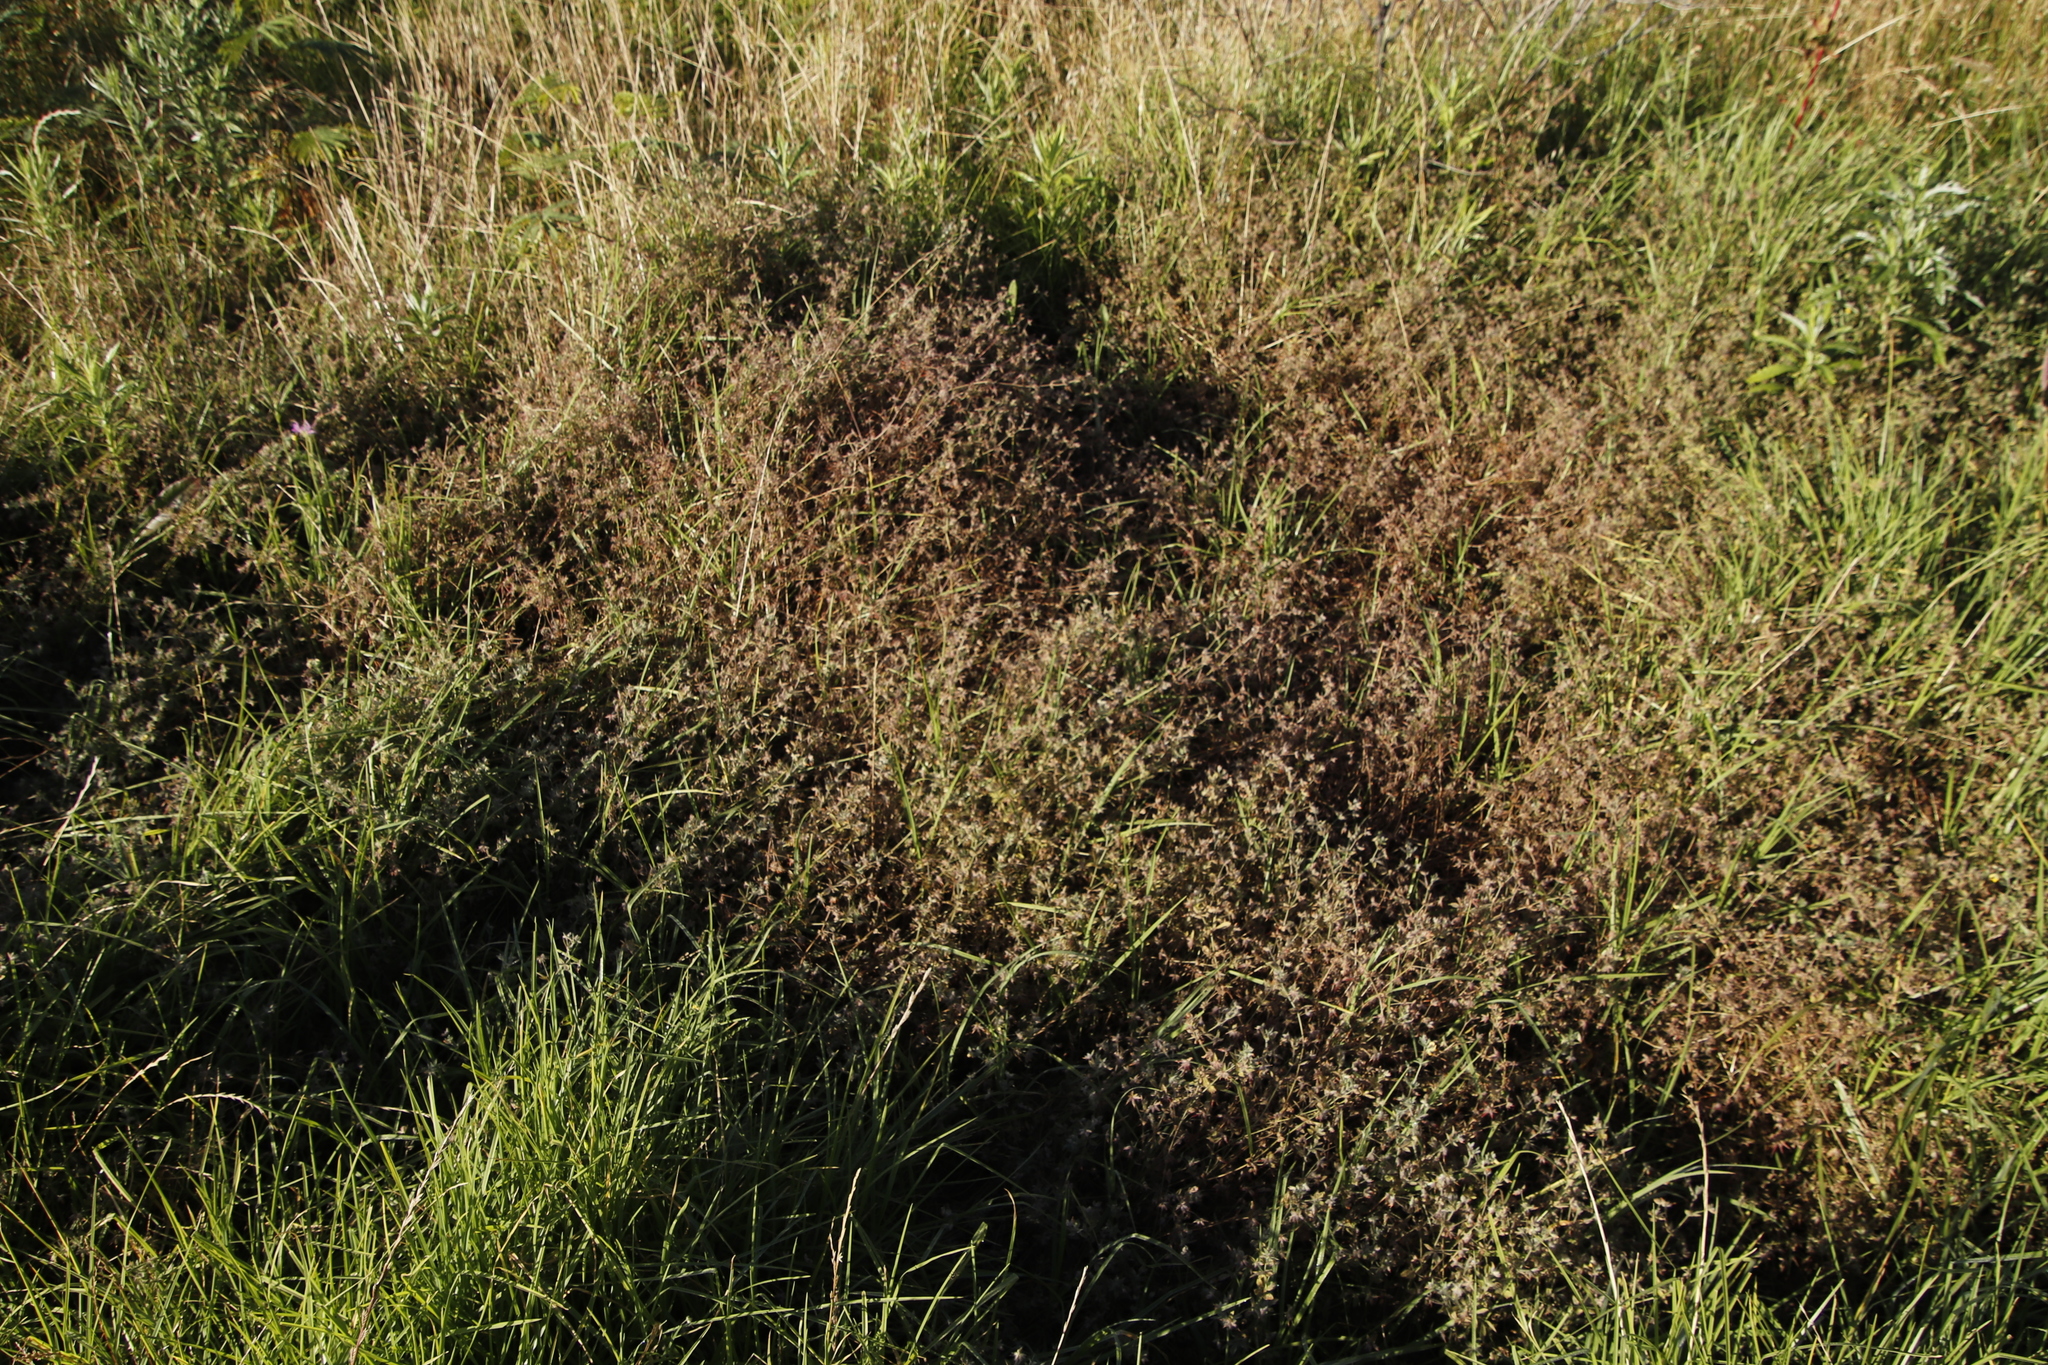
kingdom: Plantae
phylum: Tracheophyta
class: Magnoliopsida
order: Fabales
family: Fabaceae
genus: Lotus
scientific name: Lotus subbiflorus
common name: Hairy bird's-foot trefoil
